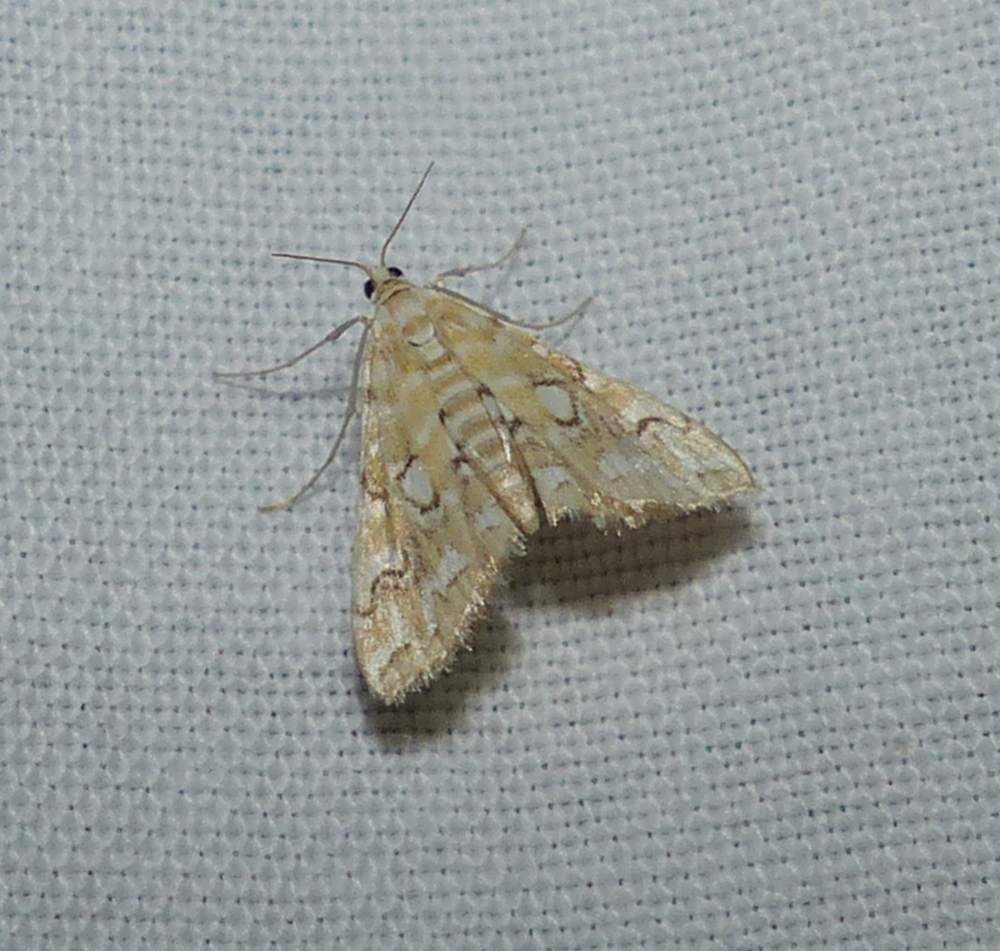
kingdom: Animalia
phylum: Arthropoda
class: Insecta
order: Lepidoptera
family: Crambidae
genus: Elophila
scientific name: Elophila icciusalis
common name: Pondside pyralid moth
